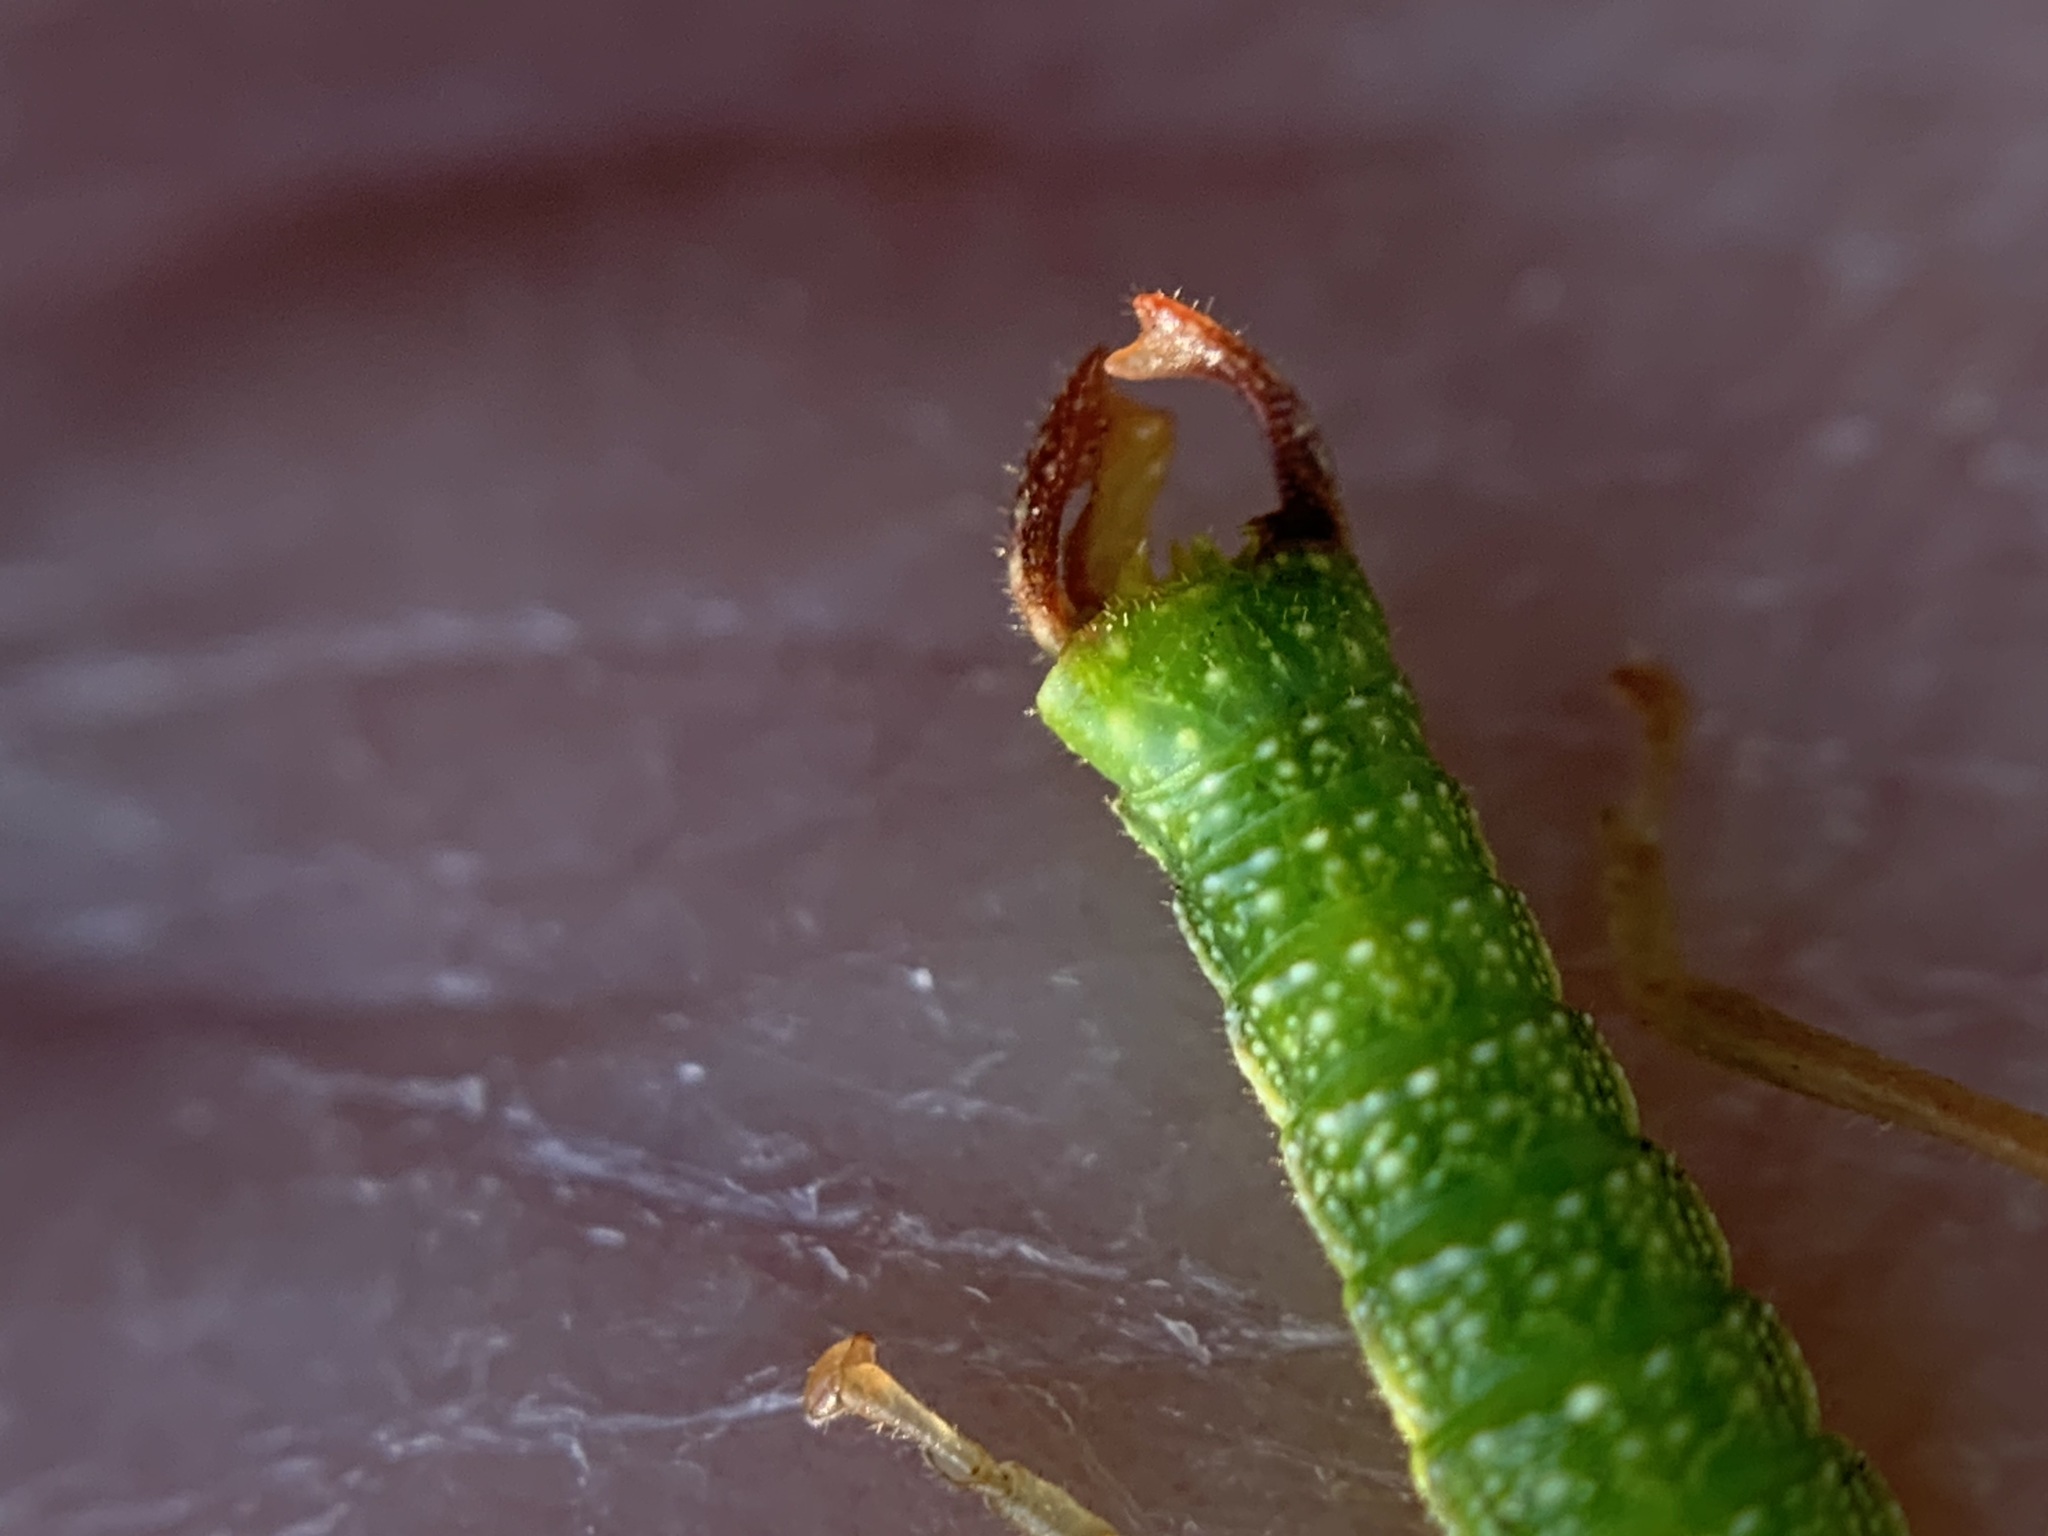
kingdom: Animalia
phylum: Arthropoda
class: Insecta
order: Phasmida
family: Timematidae
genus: Timema
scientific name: Timema californicum
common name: California timema
